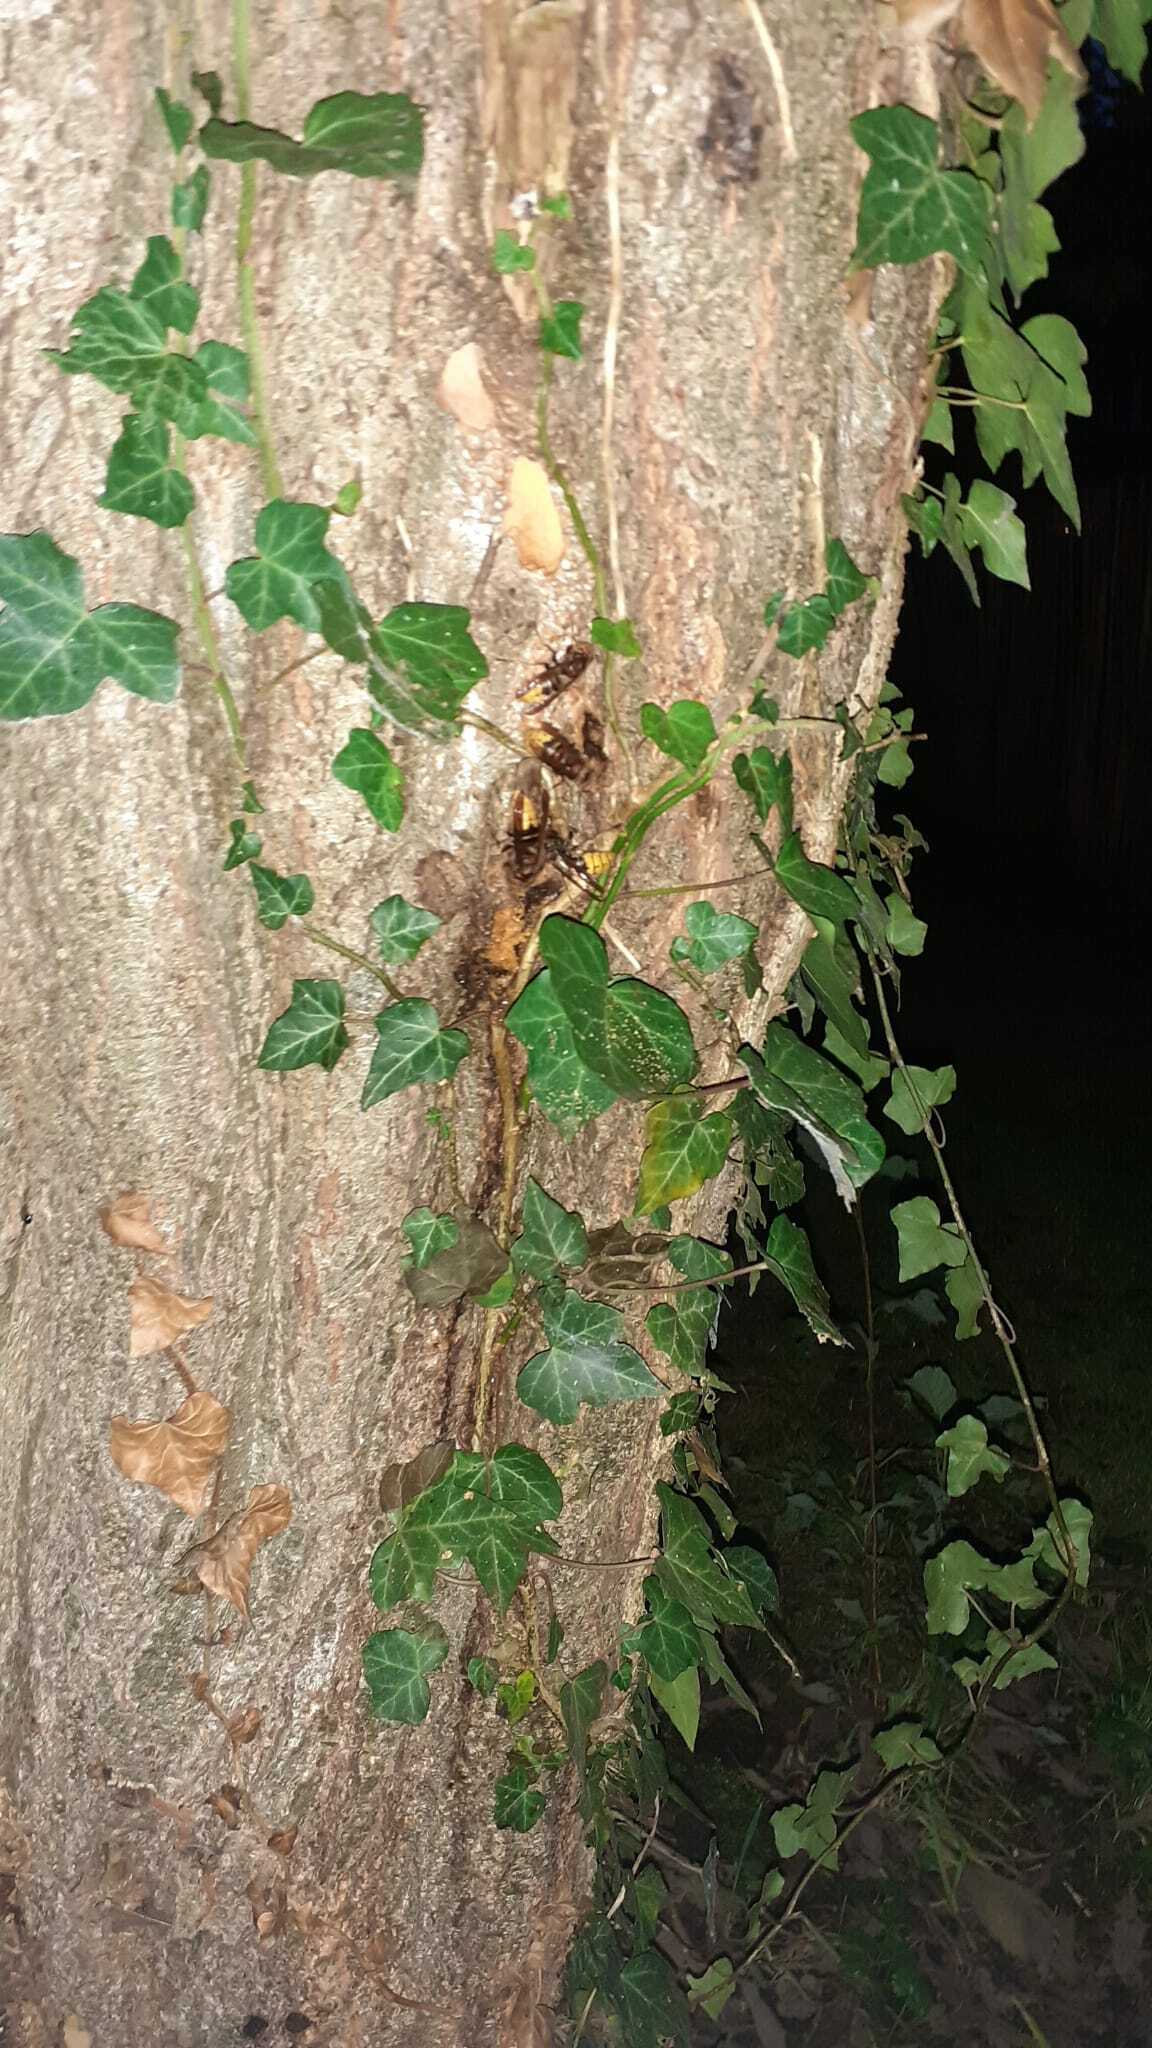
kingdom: Animalia
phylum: Arthropoda
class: Insecta
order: Hymenoptera
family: Vespidae
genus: Vespa
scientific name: Vespa crabro
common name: Hornet
